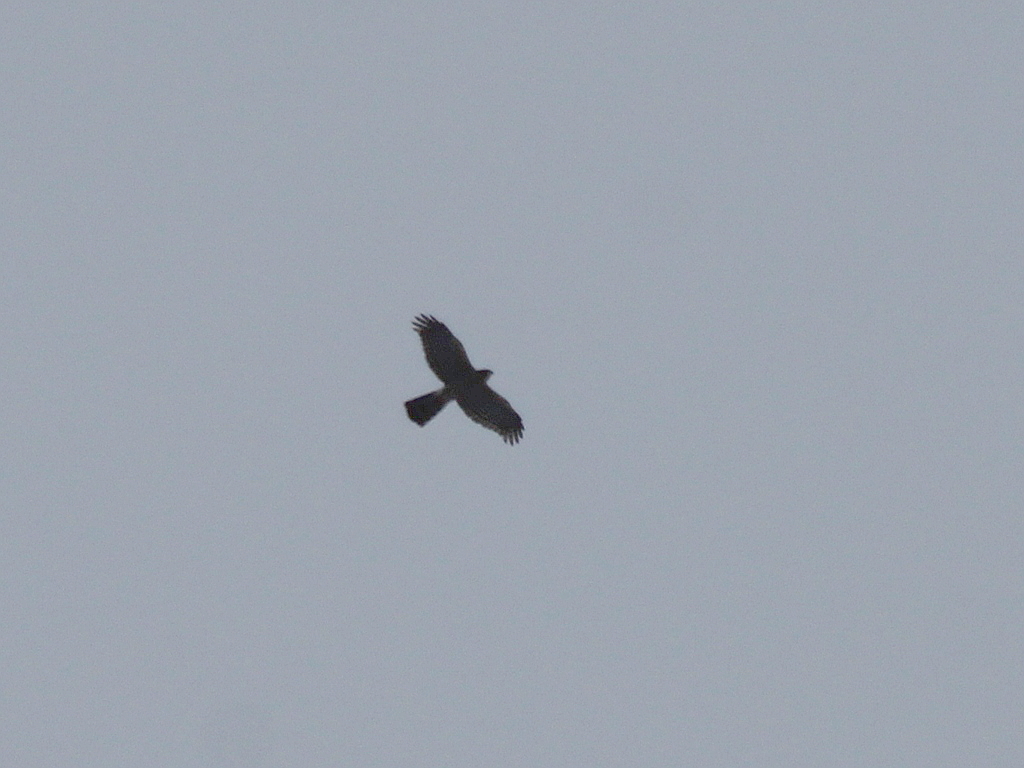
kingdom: Animalia
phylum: Chordata
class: Aves
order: Accipitriformes
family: Accipitridae
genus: Accipiter
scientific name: Accipiter nisus
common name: Eurasian sparrowhawk
